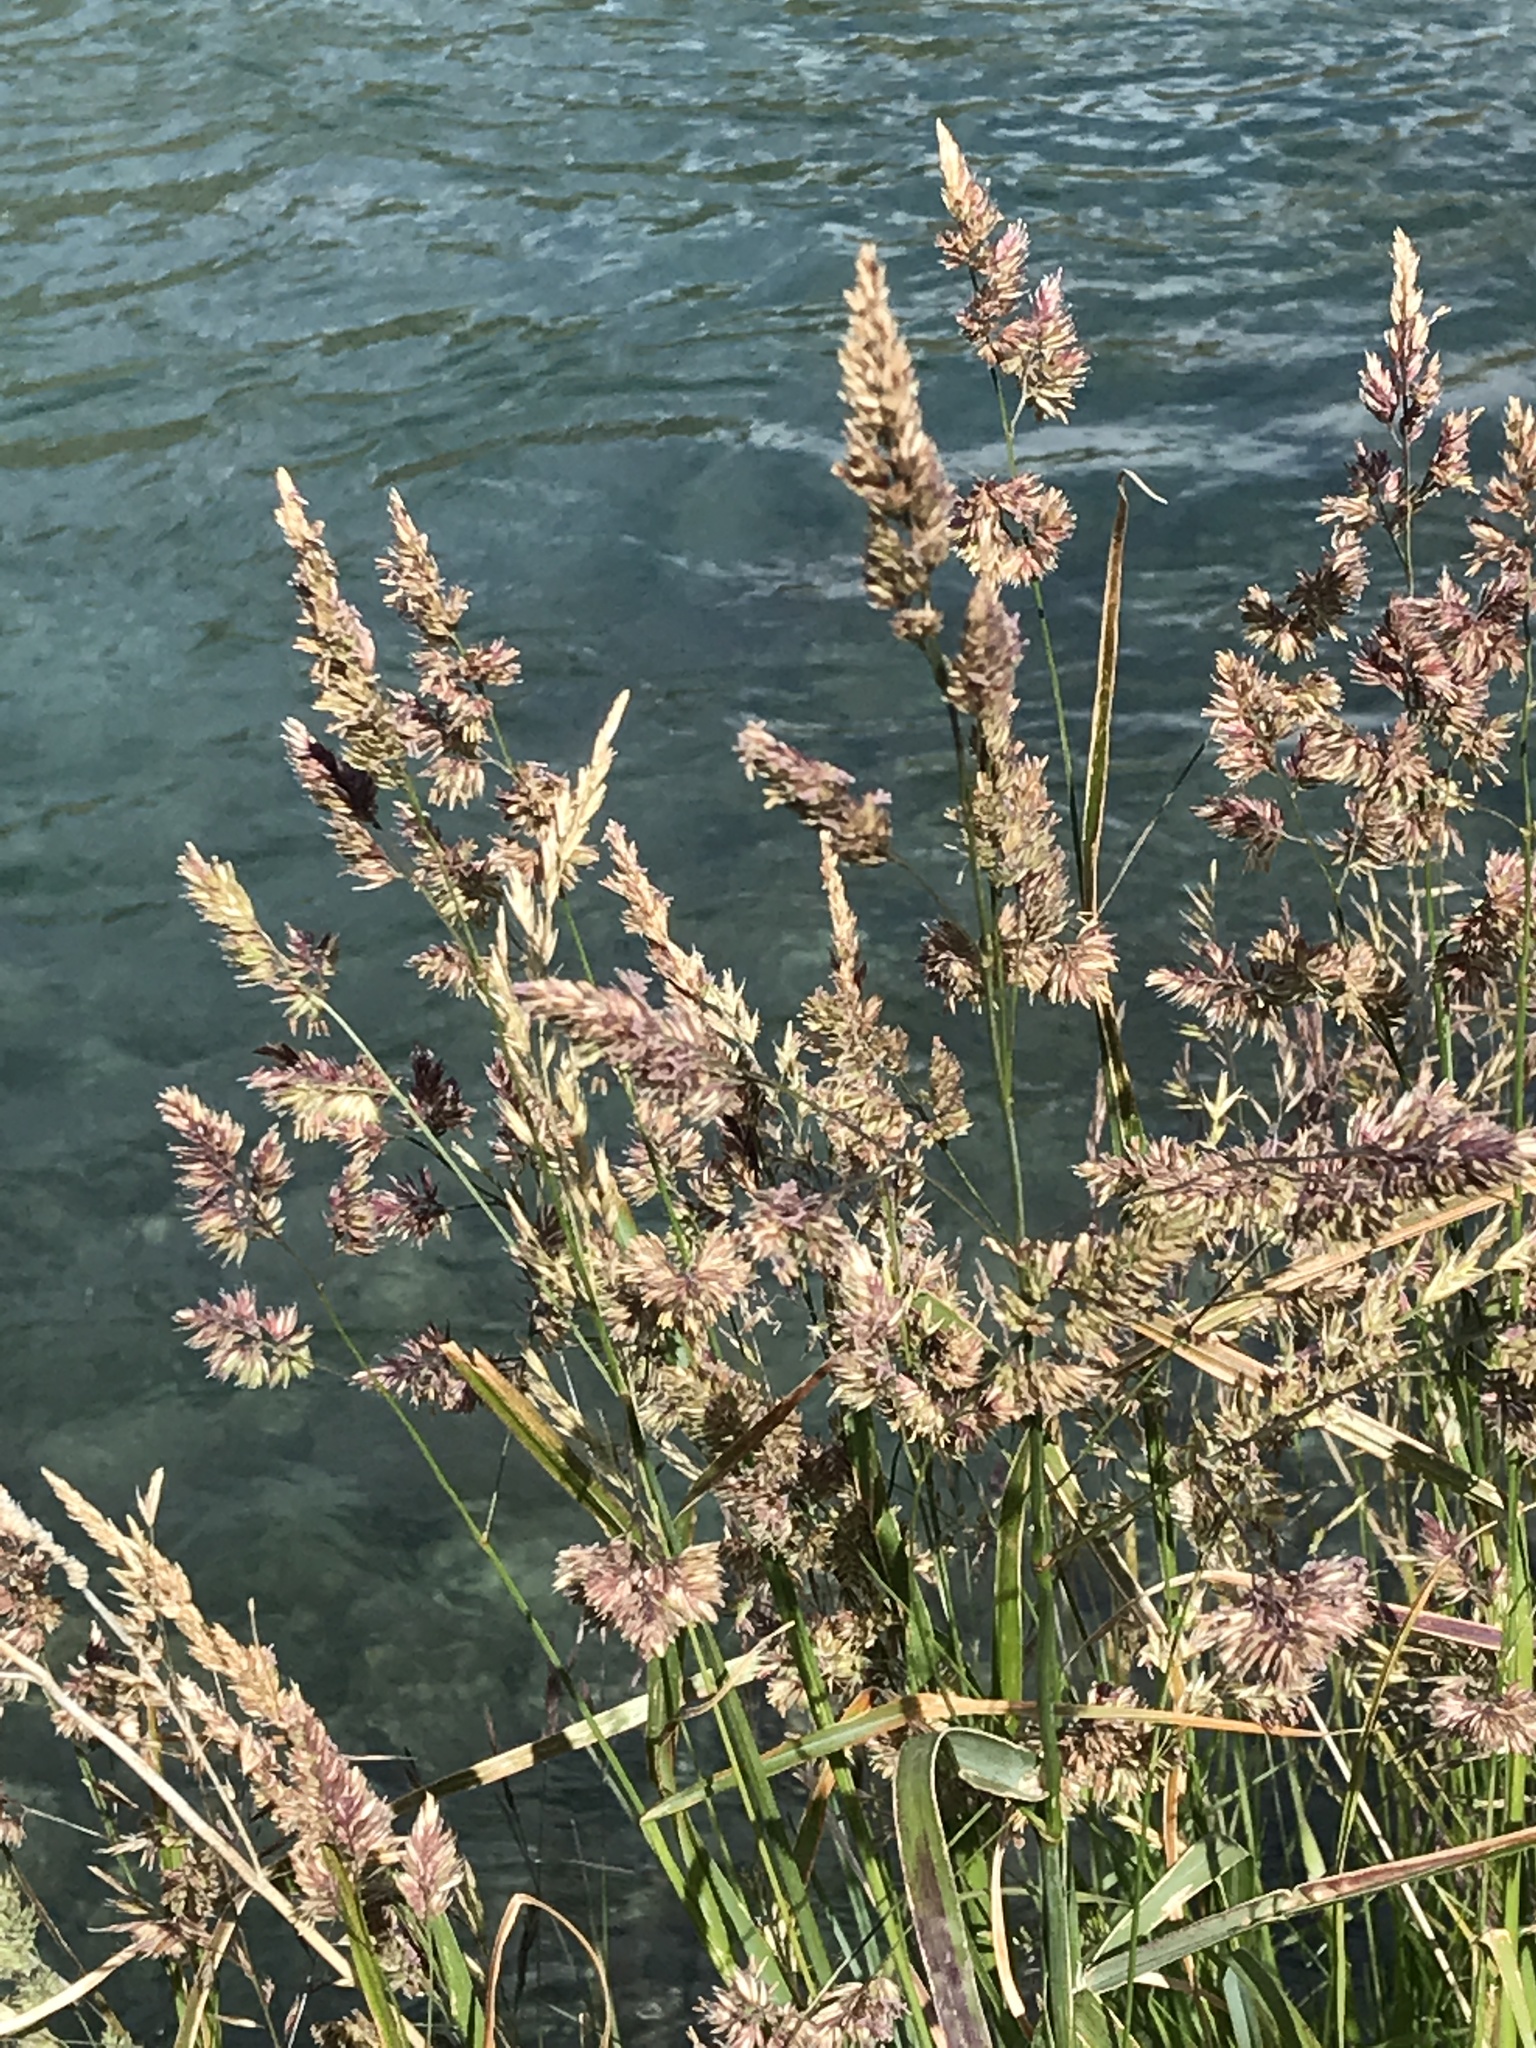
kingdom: Plantae
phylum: Tracheophyta
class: Liliopsida
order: Poales
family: Poaceae
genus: Dactylis
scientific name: Dactylis glomerata
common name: Orchardgrass
